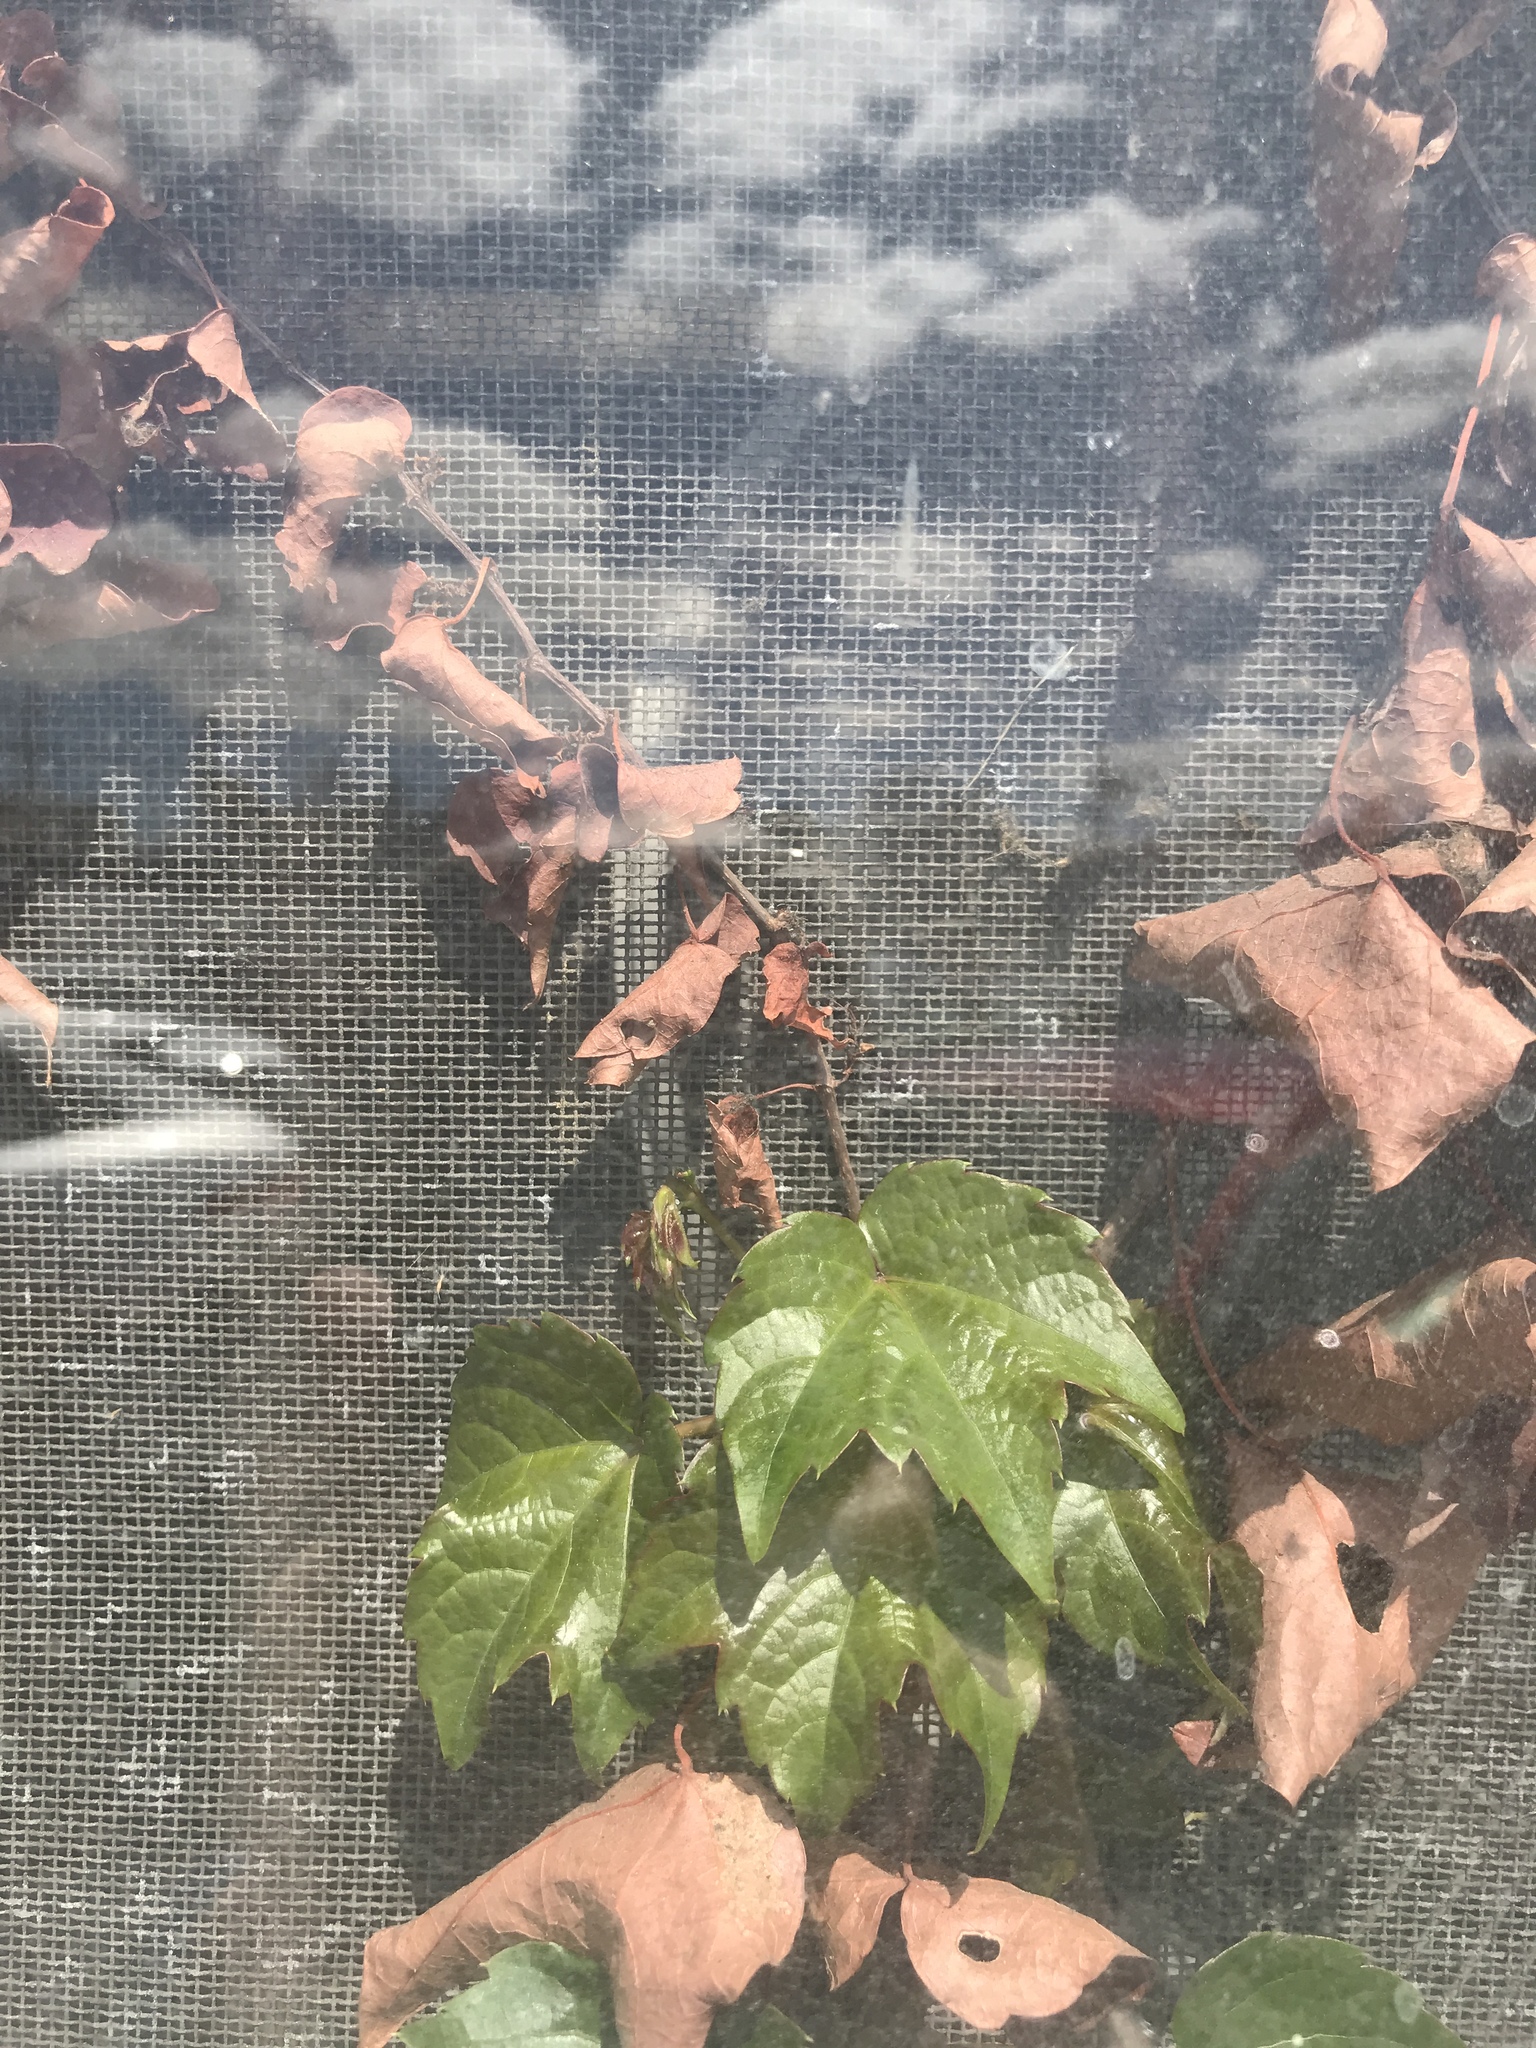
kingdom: Plantae
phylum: Tracheophyta
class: Magnoliopsida
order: Vitales
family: Vitaceae
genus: Parthenocissus
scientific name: Parthenocissus tricuspidata
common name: Boston ivy
